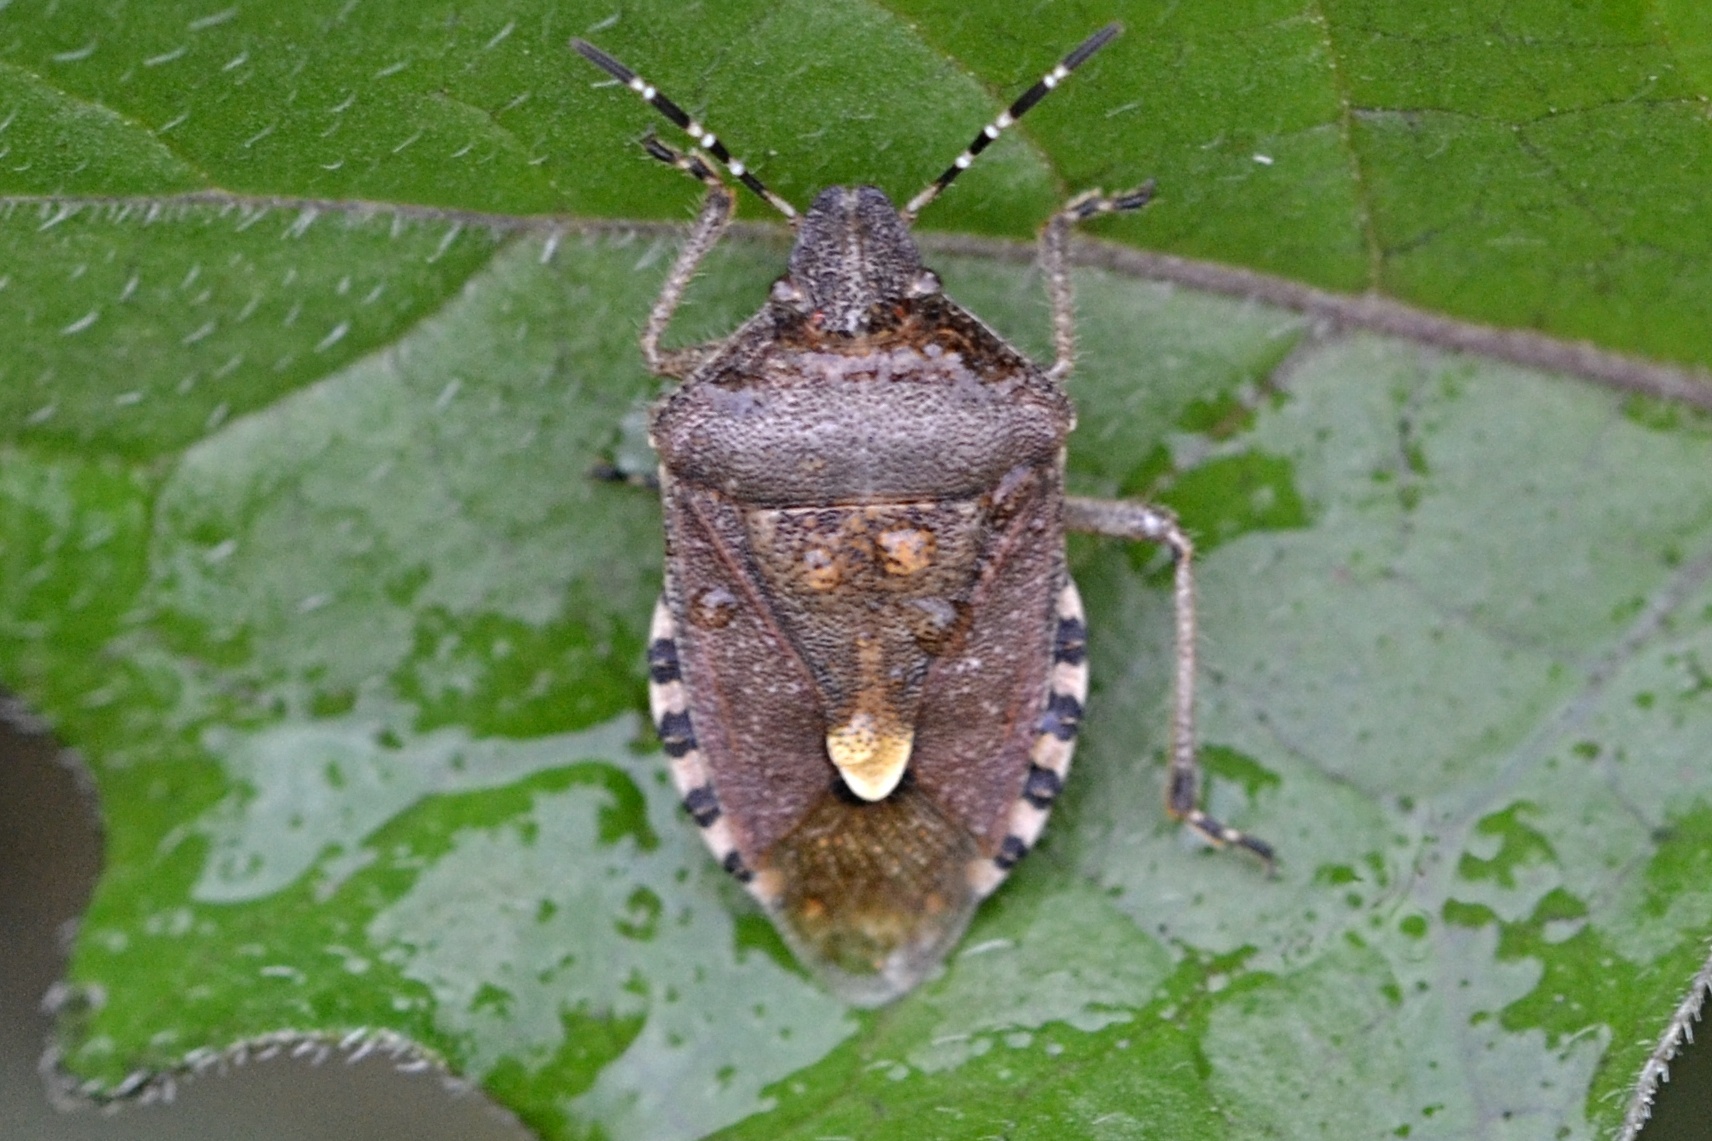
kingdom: Animalia
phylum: Arthropoda
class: Insecta
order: Hemiptera
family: Pentatomidae
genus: Dolycoris
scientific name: Dolycoris baccarum
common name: Sloe bug
